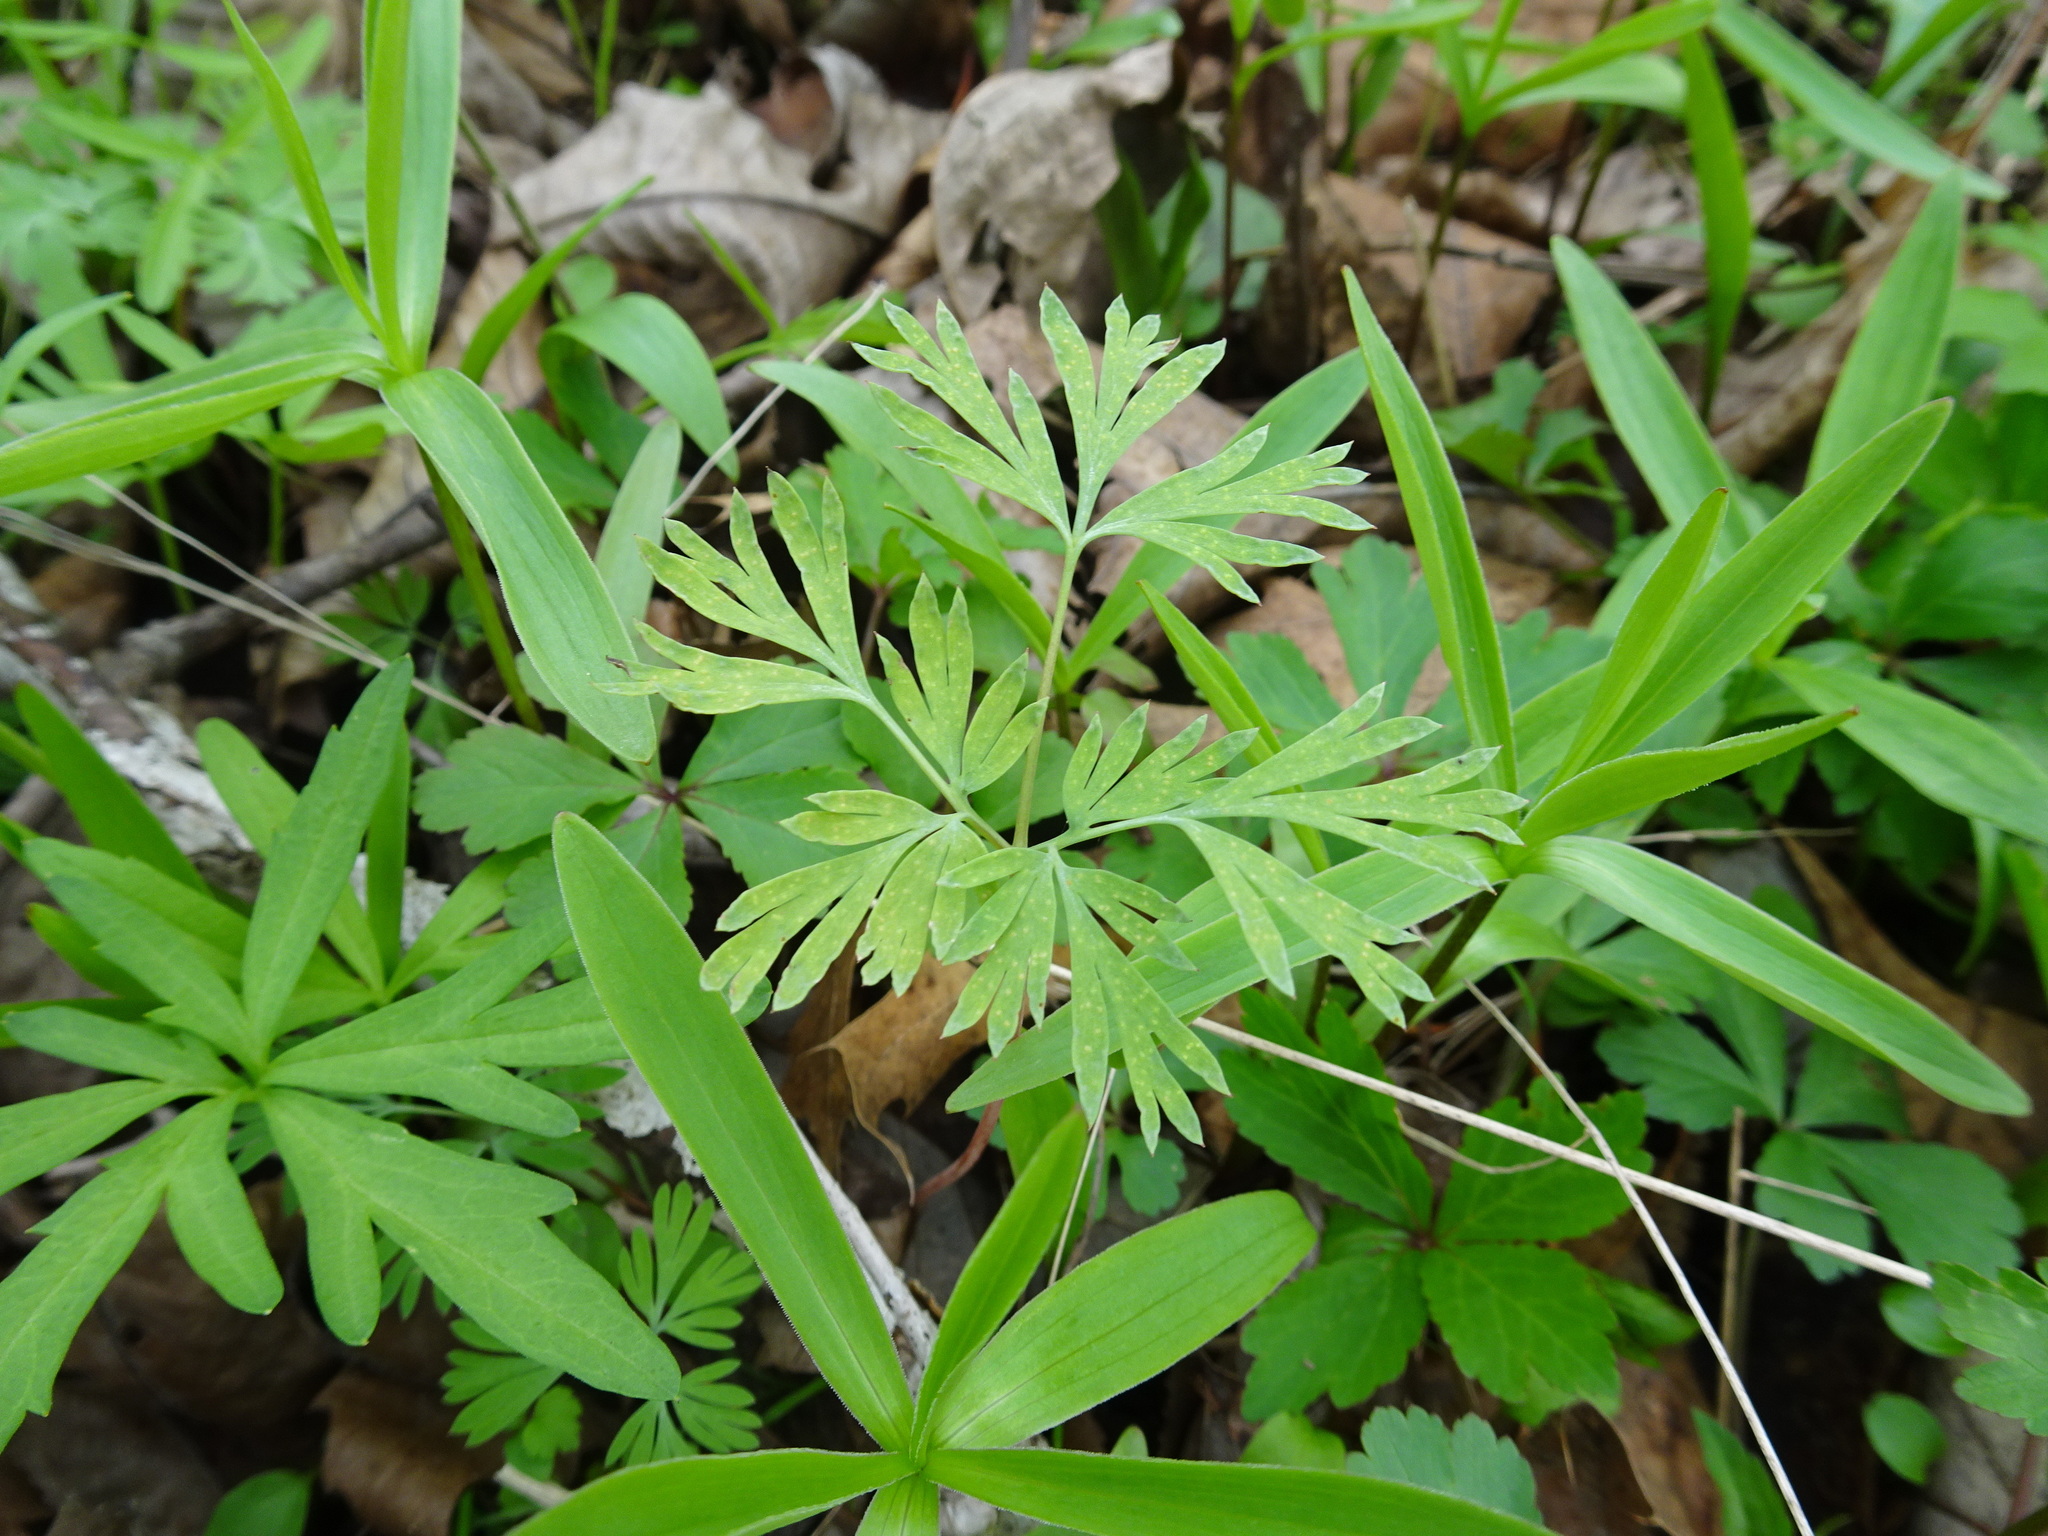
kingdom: Plantae
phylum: Tracheophyta
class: Magnoliopsida
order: Ranunculales
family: Papaveraceae
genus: Dicentra
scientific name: Dicentra cucullaria
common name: Dutchman's breeches
